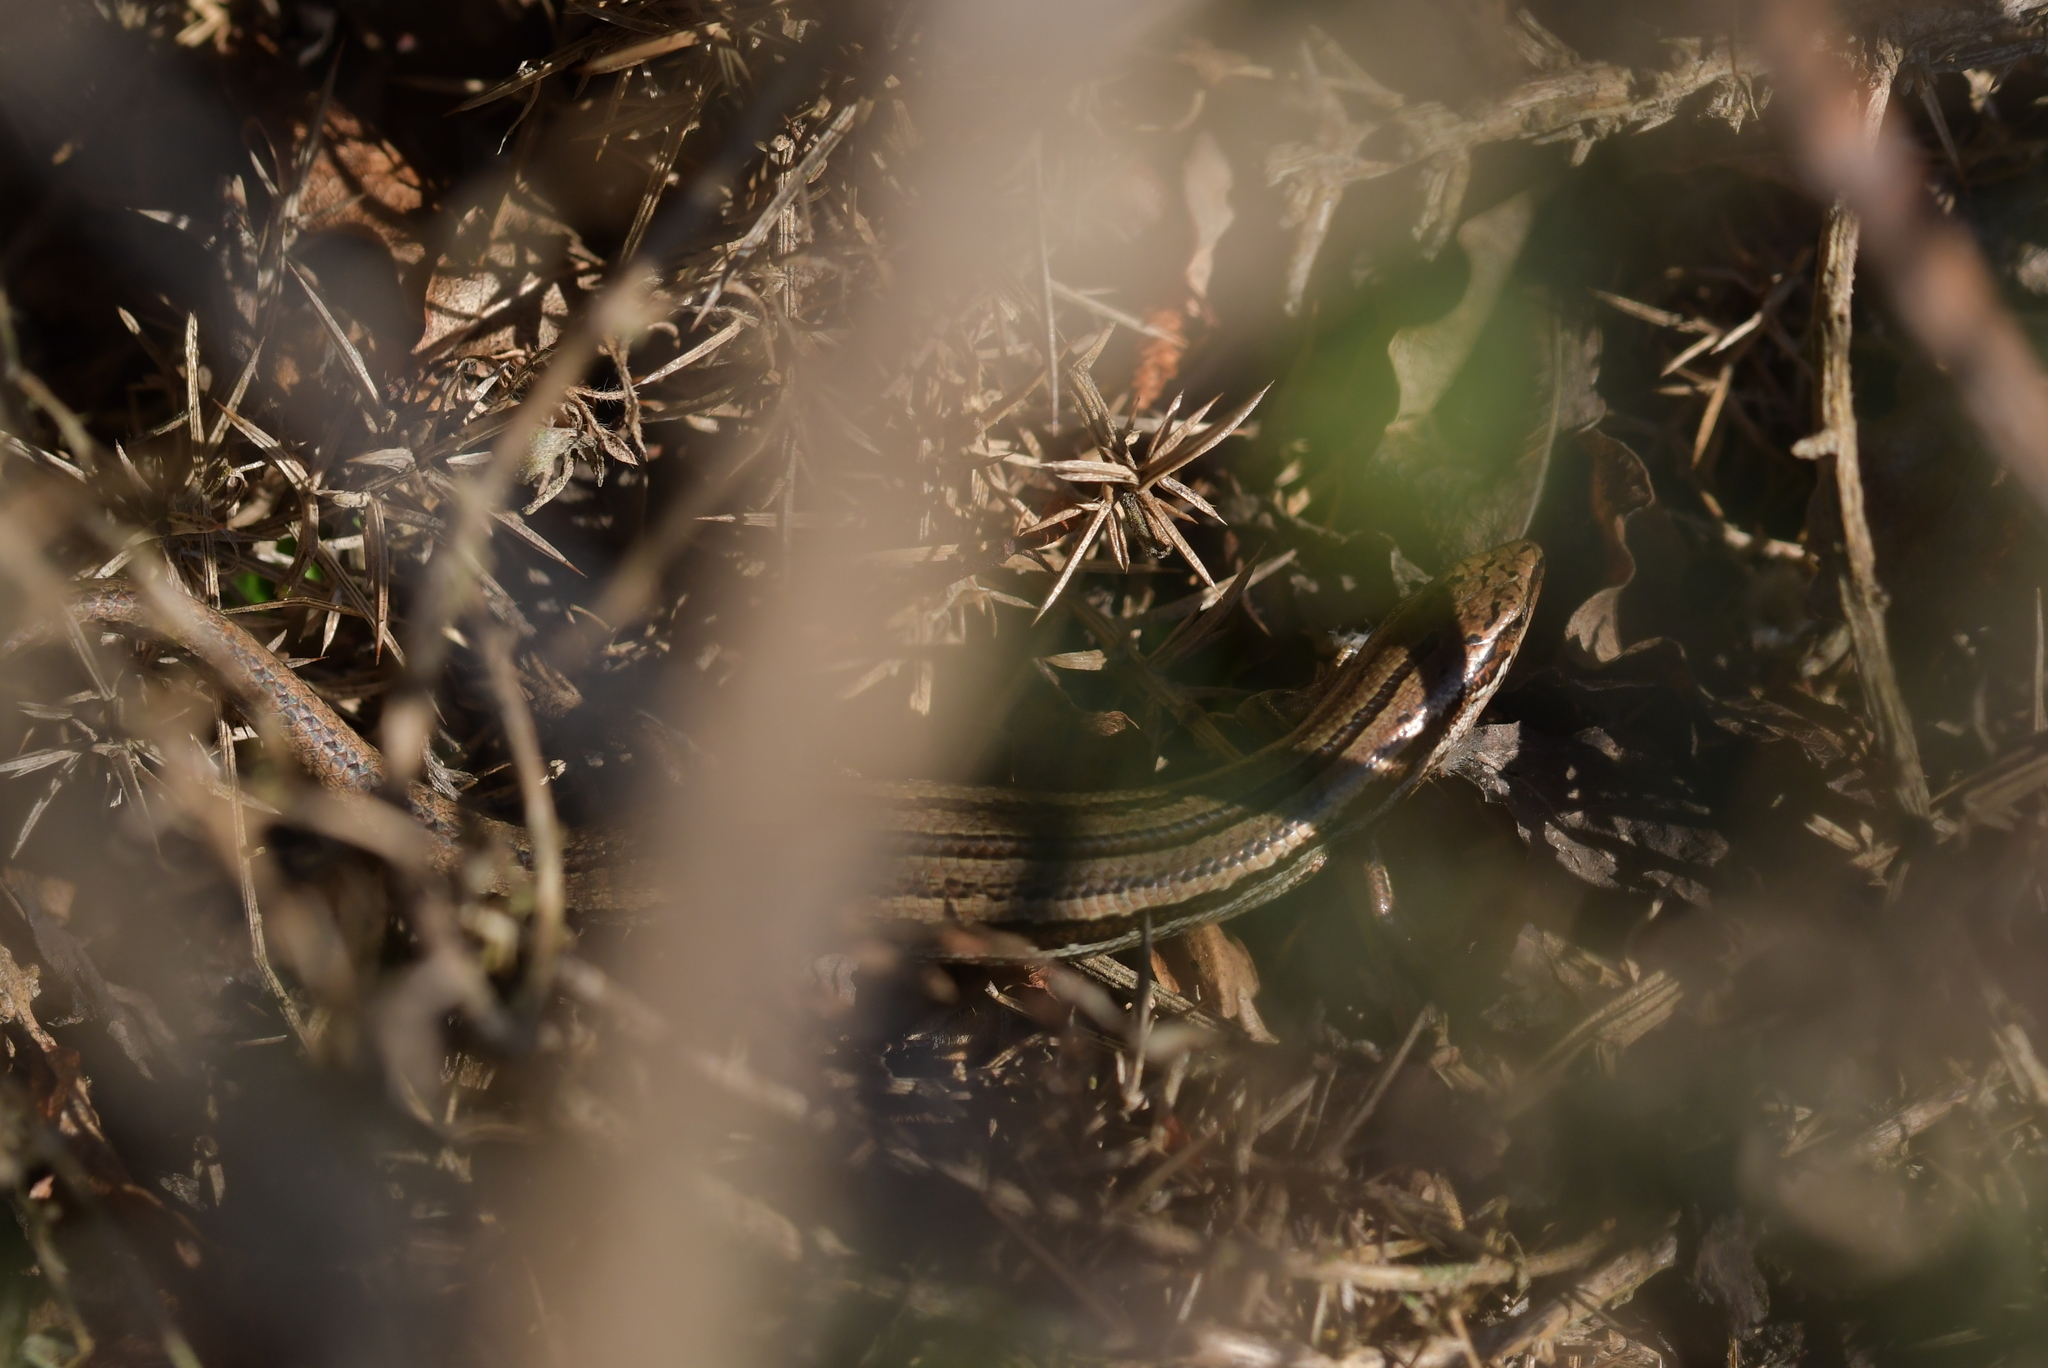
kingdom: Animalia
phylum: Chordata
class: Squamata
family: Scincidae
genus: Oligosoma
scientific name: Oligosoma polychroma
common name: Common new zealand skink
